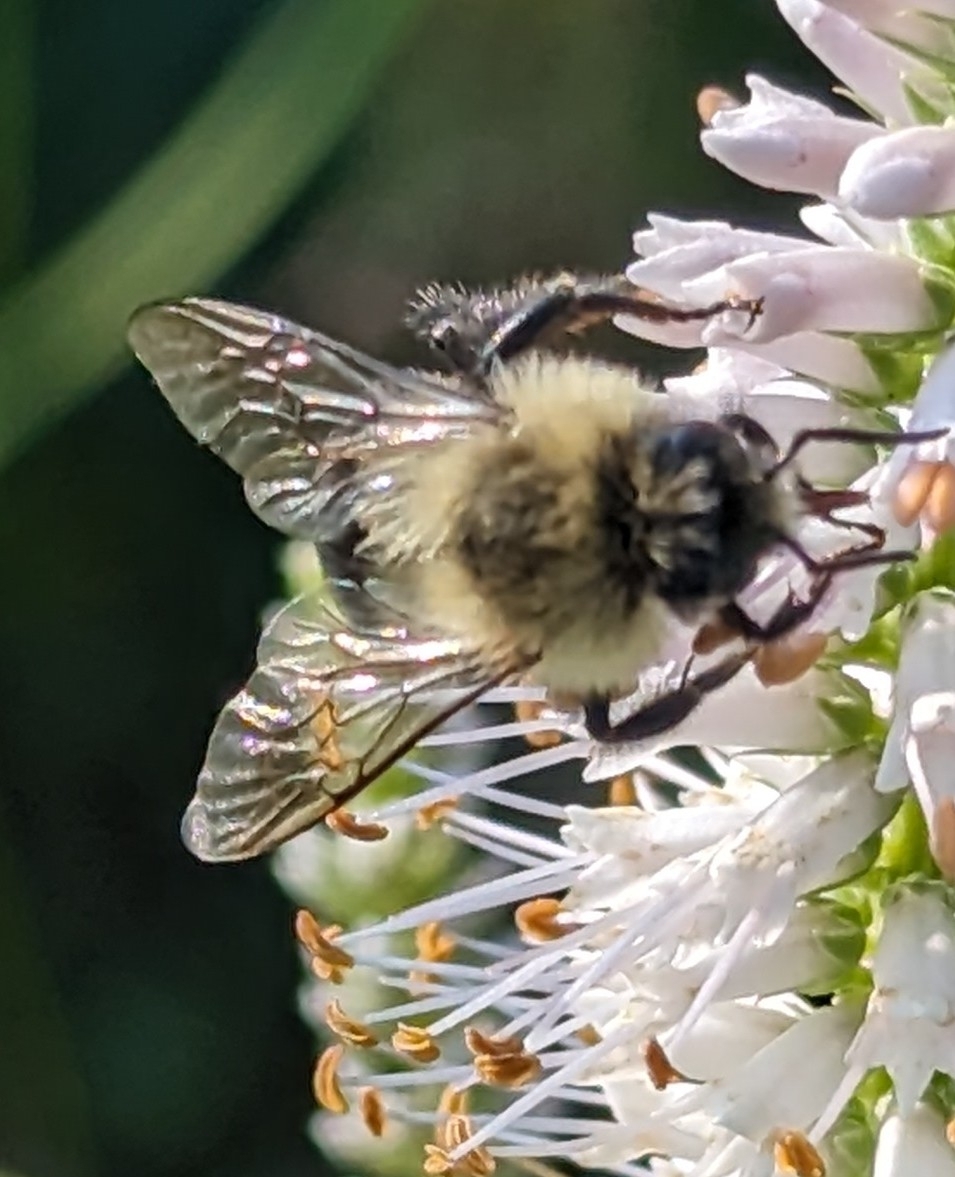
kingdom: Animalia
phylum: Arthropoda
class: Insecta
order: Hymenoptera
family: Apidae
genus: Bombus
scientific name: Bombus impatiens
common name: Common eastern bumble bee
